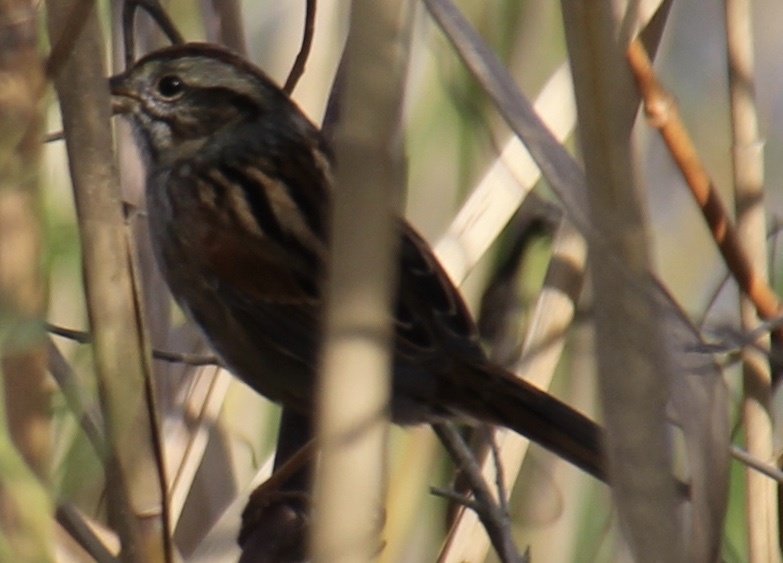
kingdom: Animalia
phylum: Chordata
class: Aves
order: Passeriformes
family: Passerellidae
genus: Melospiza
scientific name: Melospiza georgiana
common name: Swamp sparrow
